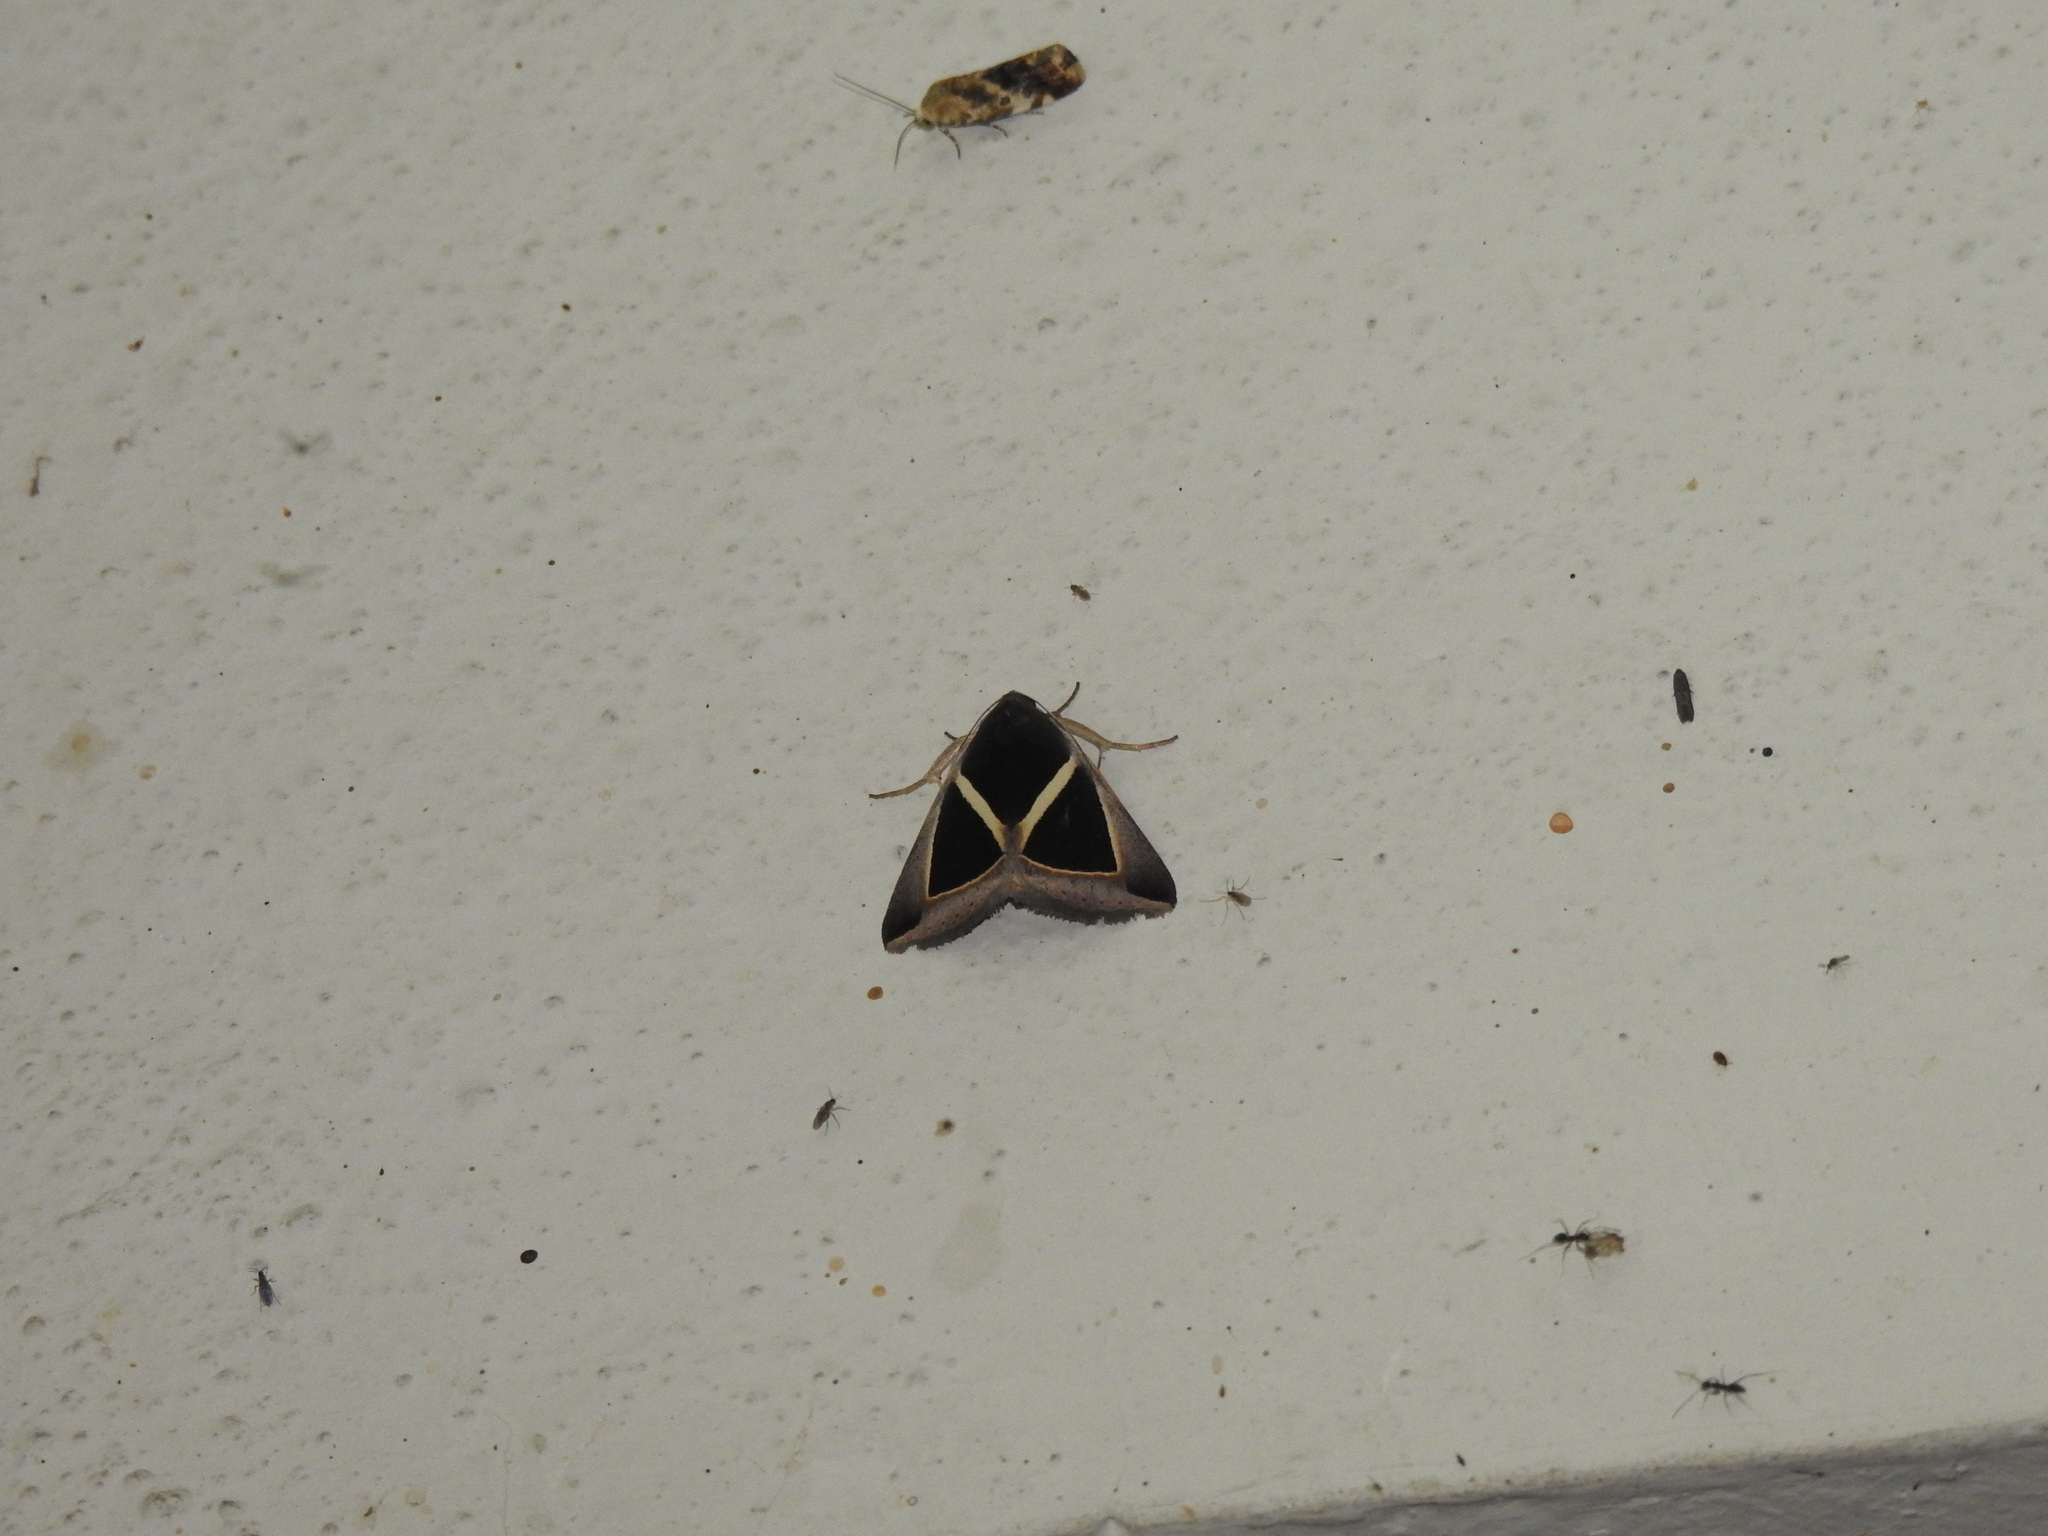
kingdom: Animalia
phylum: Arthropoda
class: Insecta
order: Lepidoptera
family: Erebidae
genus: Chalciope
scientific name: Chalciope mygdon
